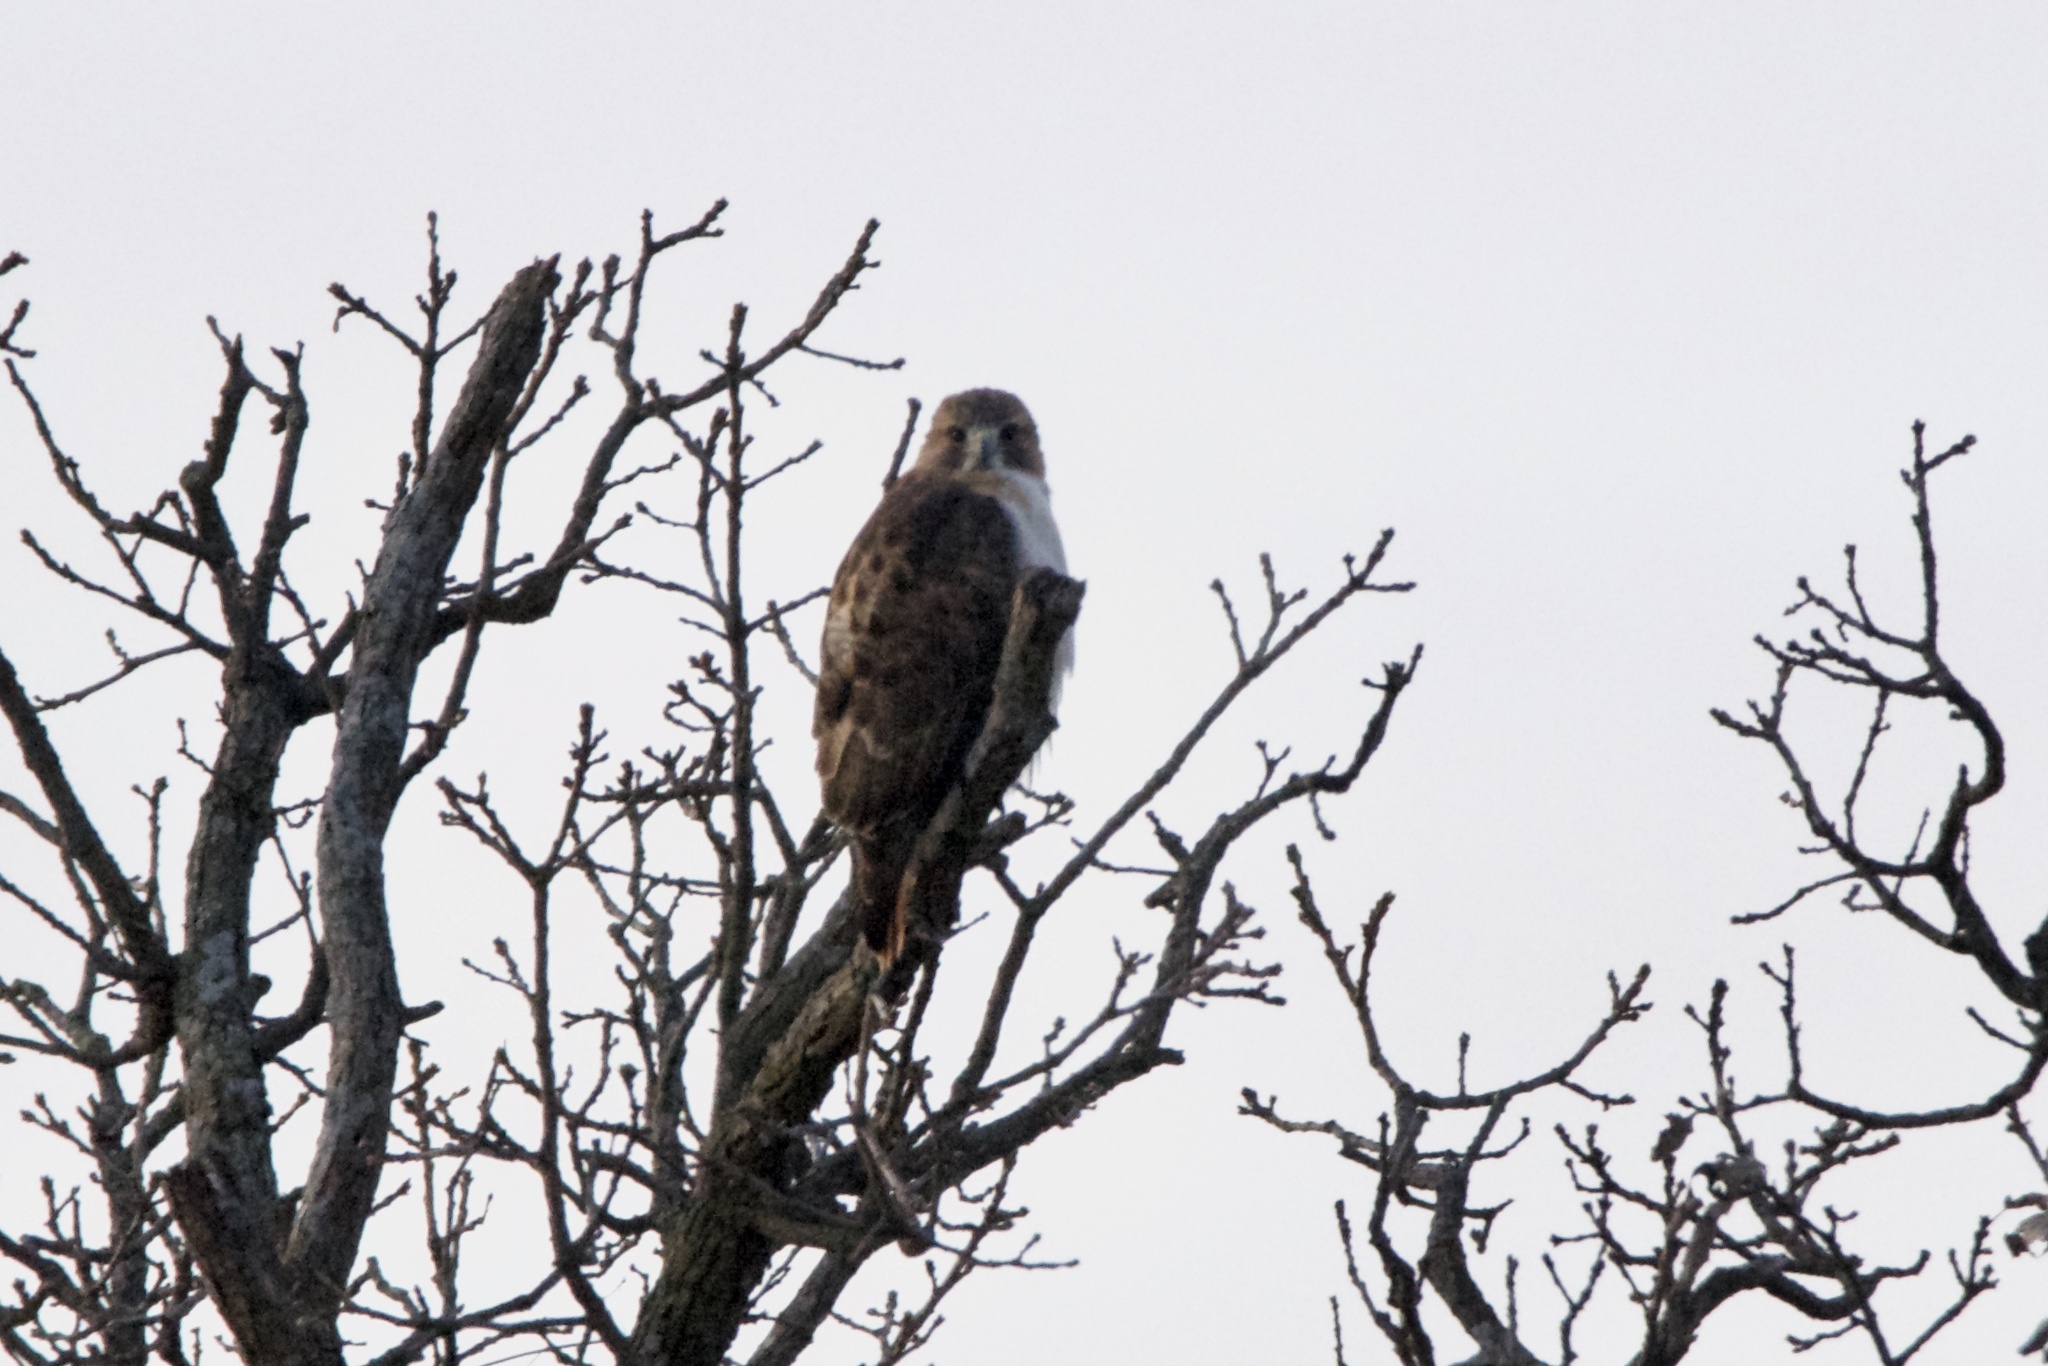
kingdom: Animalia
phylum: Chordata
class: Aves
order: Accipitriformes
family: Accipitridae
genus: Buteo
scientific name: Buteo jamaicensis
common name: Red-tailed hawk
